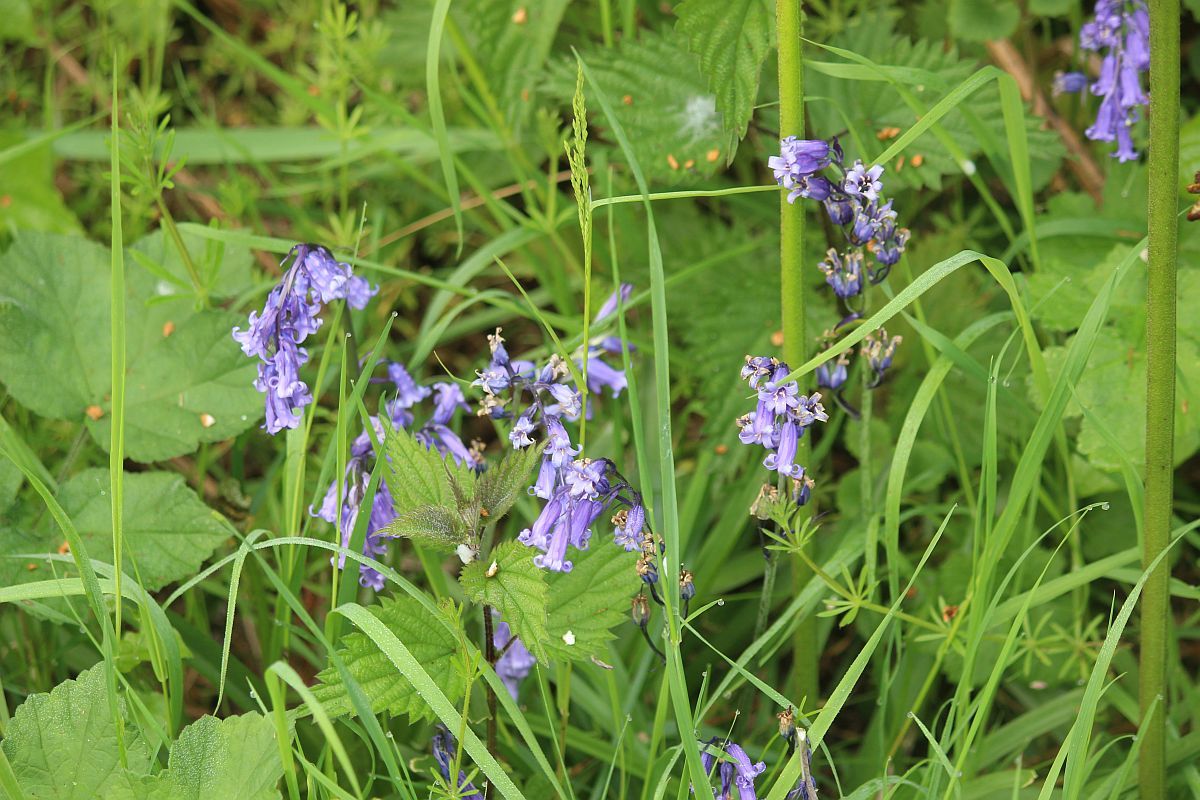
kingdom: Plantae
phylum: Tracheophyta
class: Liliopsida
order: Asparagales
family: Asparagaceae
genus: Hyacinthoides
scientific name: Hyacinthoides non-scripta
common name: Bluebell
